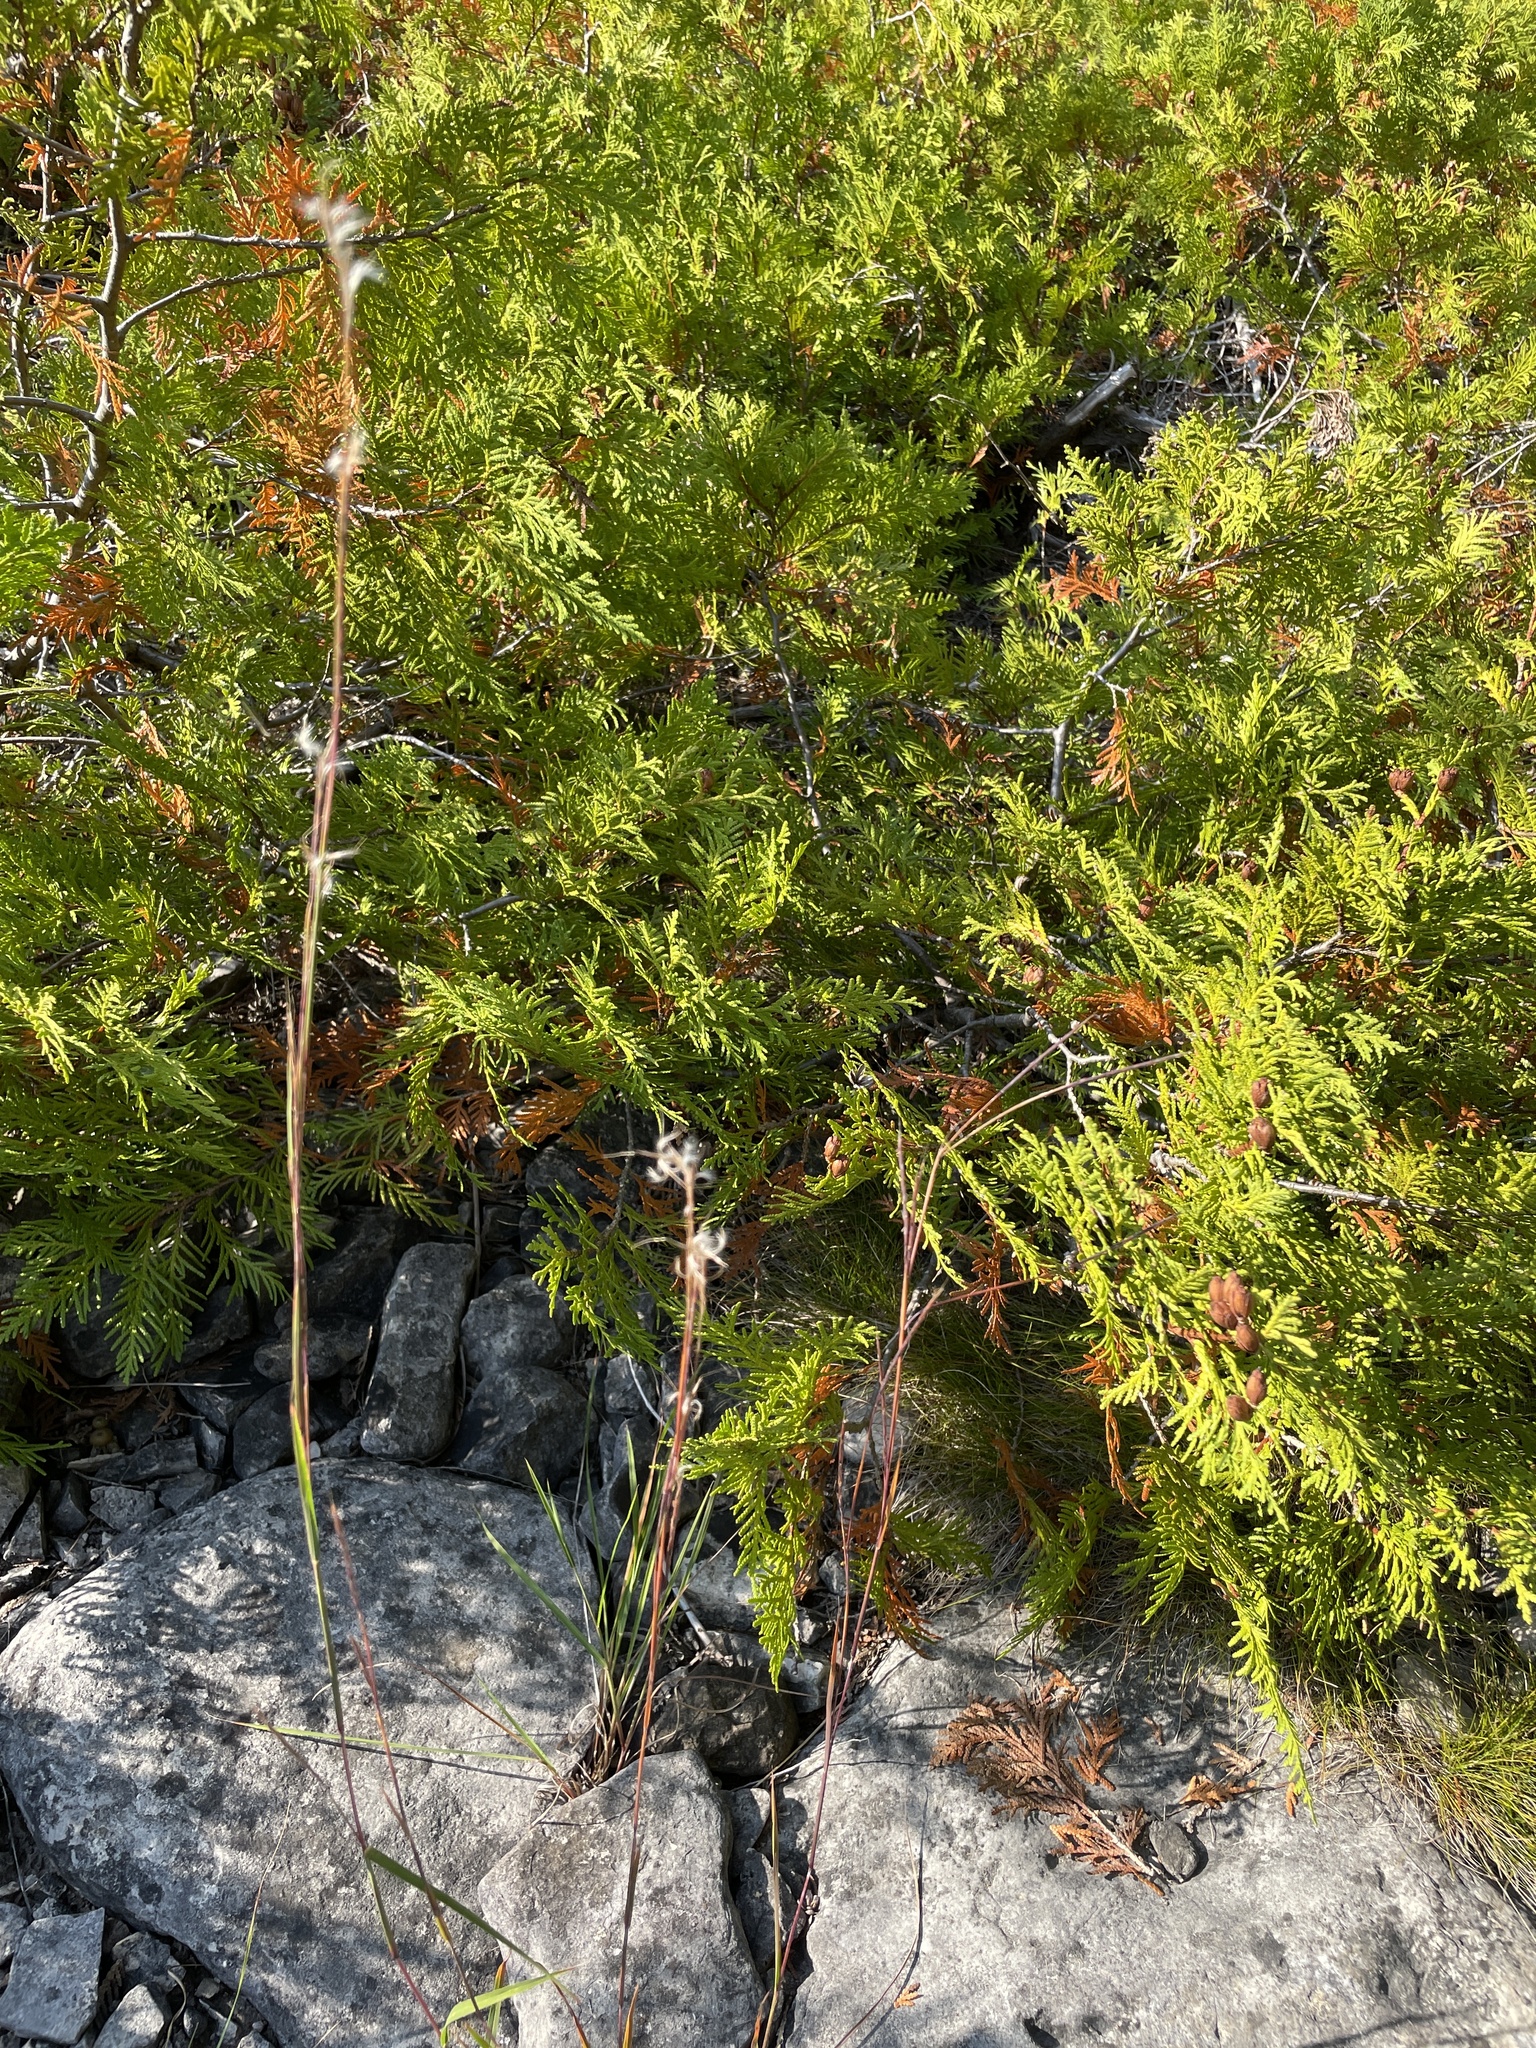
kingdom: Plantae
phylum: Tracheophyta
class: Liliopsida
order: Poales
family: Poaceae
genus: Schizachyrium
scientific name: Schizachyrium scoparium
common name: Little bluestem
